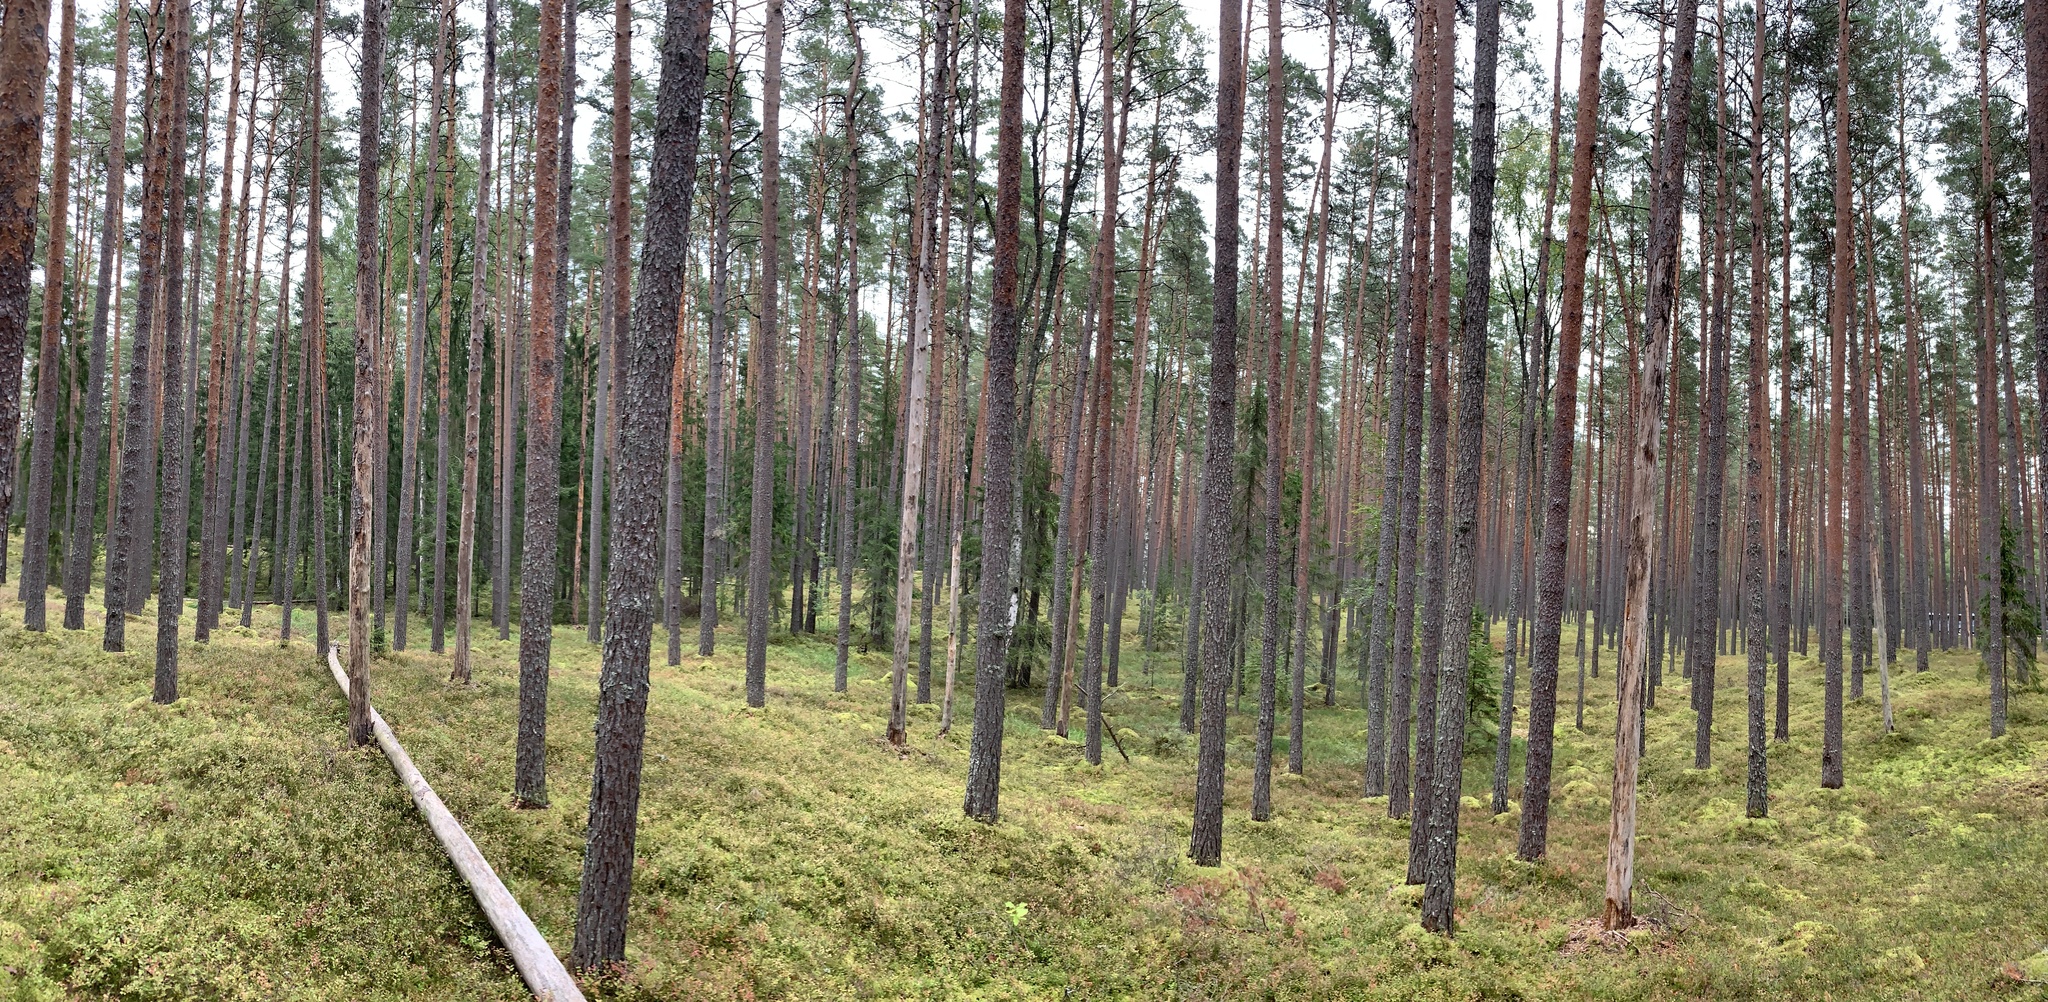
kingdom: Plantae
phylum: Tracheophyta
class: Pinopsida
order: Pinales
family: Pinaceae
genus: Pinus
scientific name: Pinus sylvestris
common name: Scots pine
